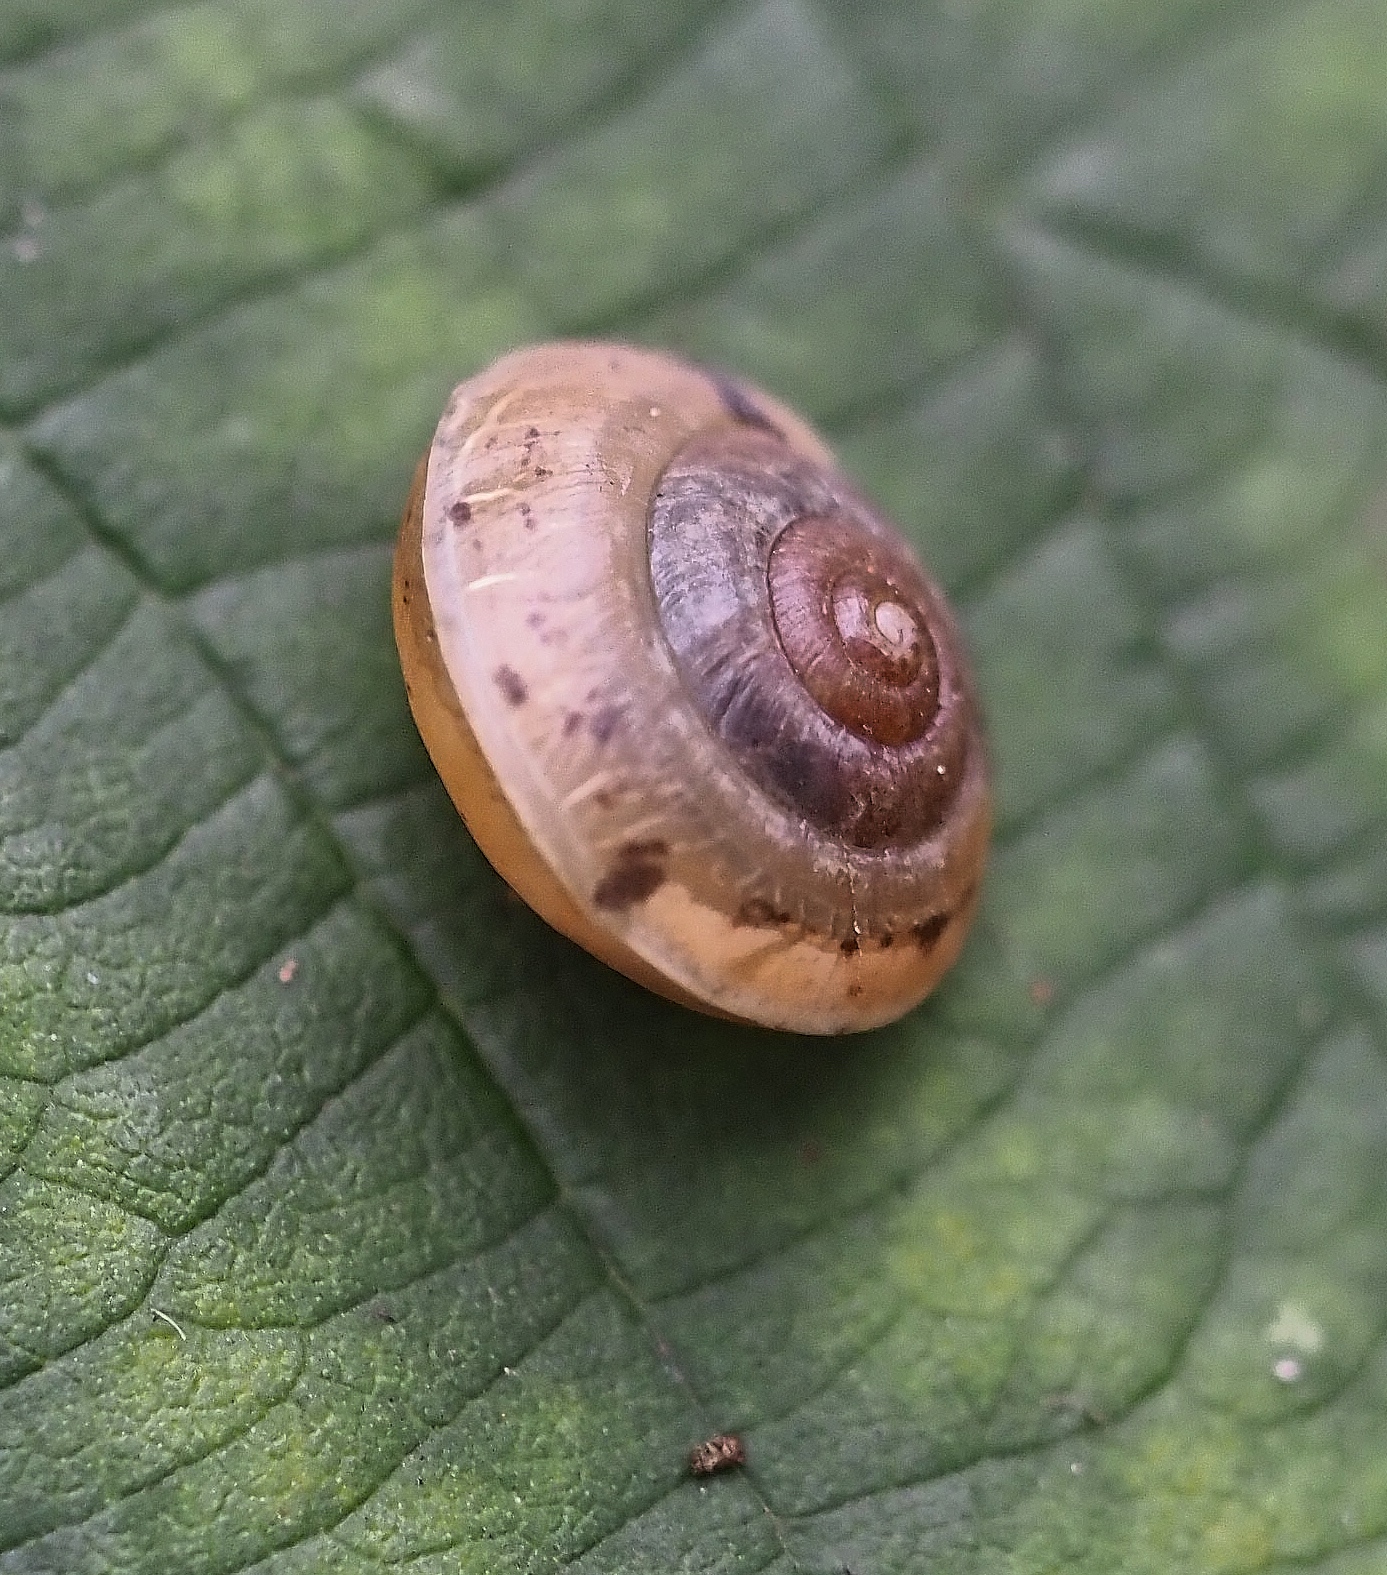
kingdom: Animalia
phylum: Mollusca
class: Gastropoda
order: Stylommatophora
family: Hygromiidae
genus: Hygromia
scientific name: Hygromia cinctella
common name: Girdled snail
